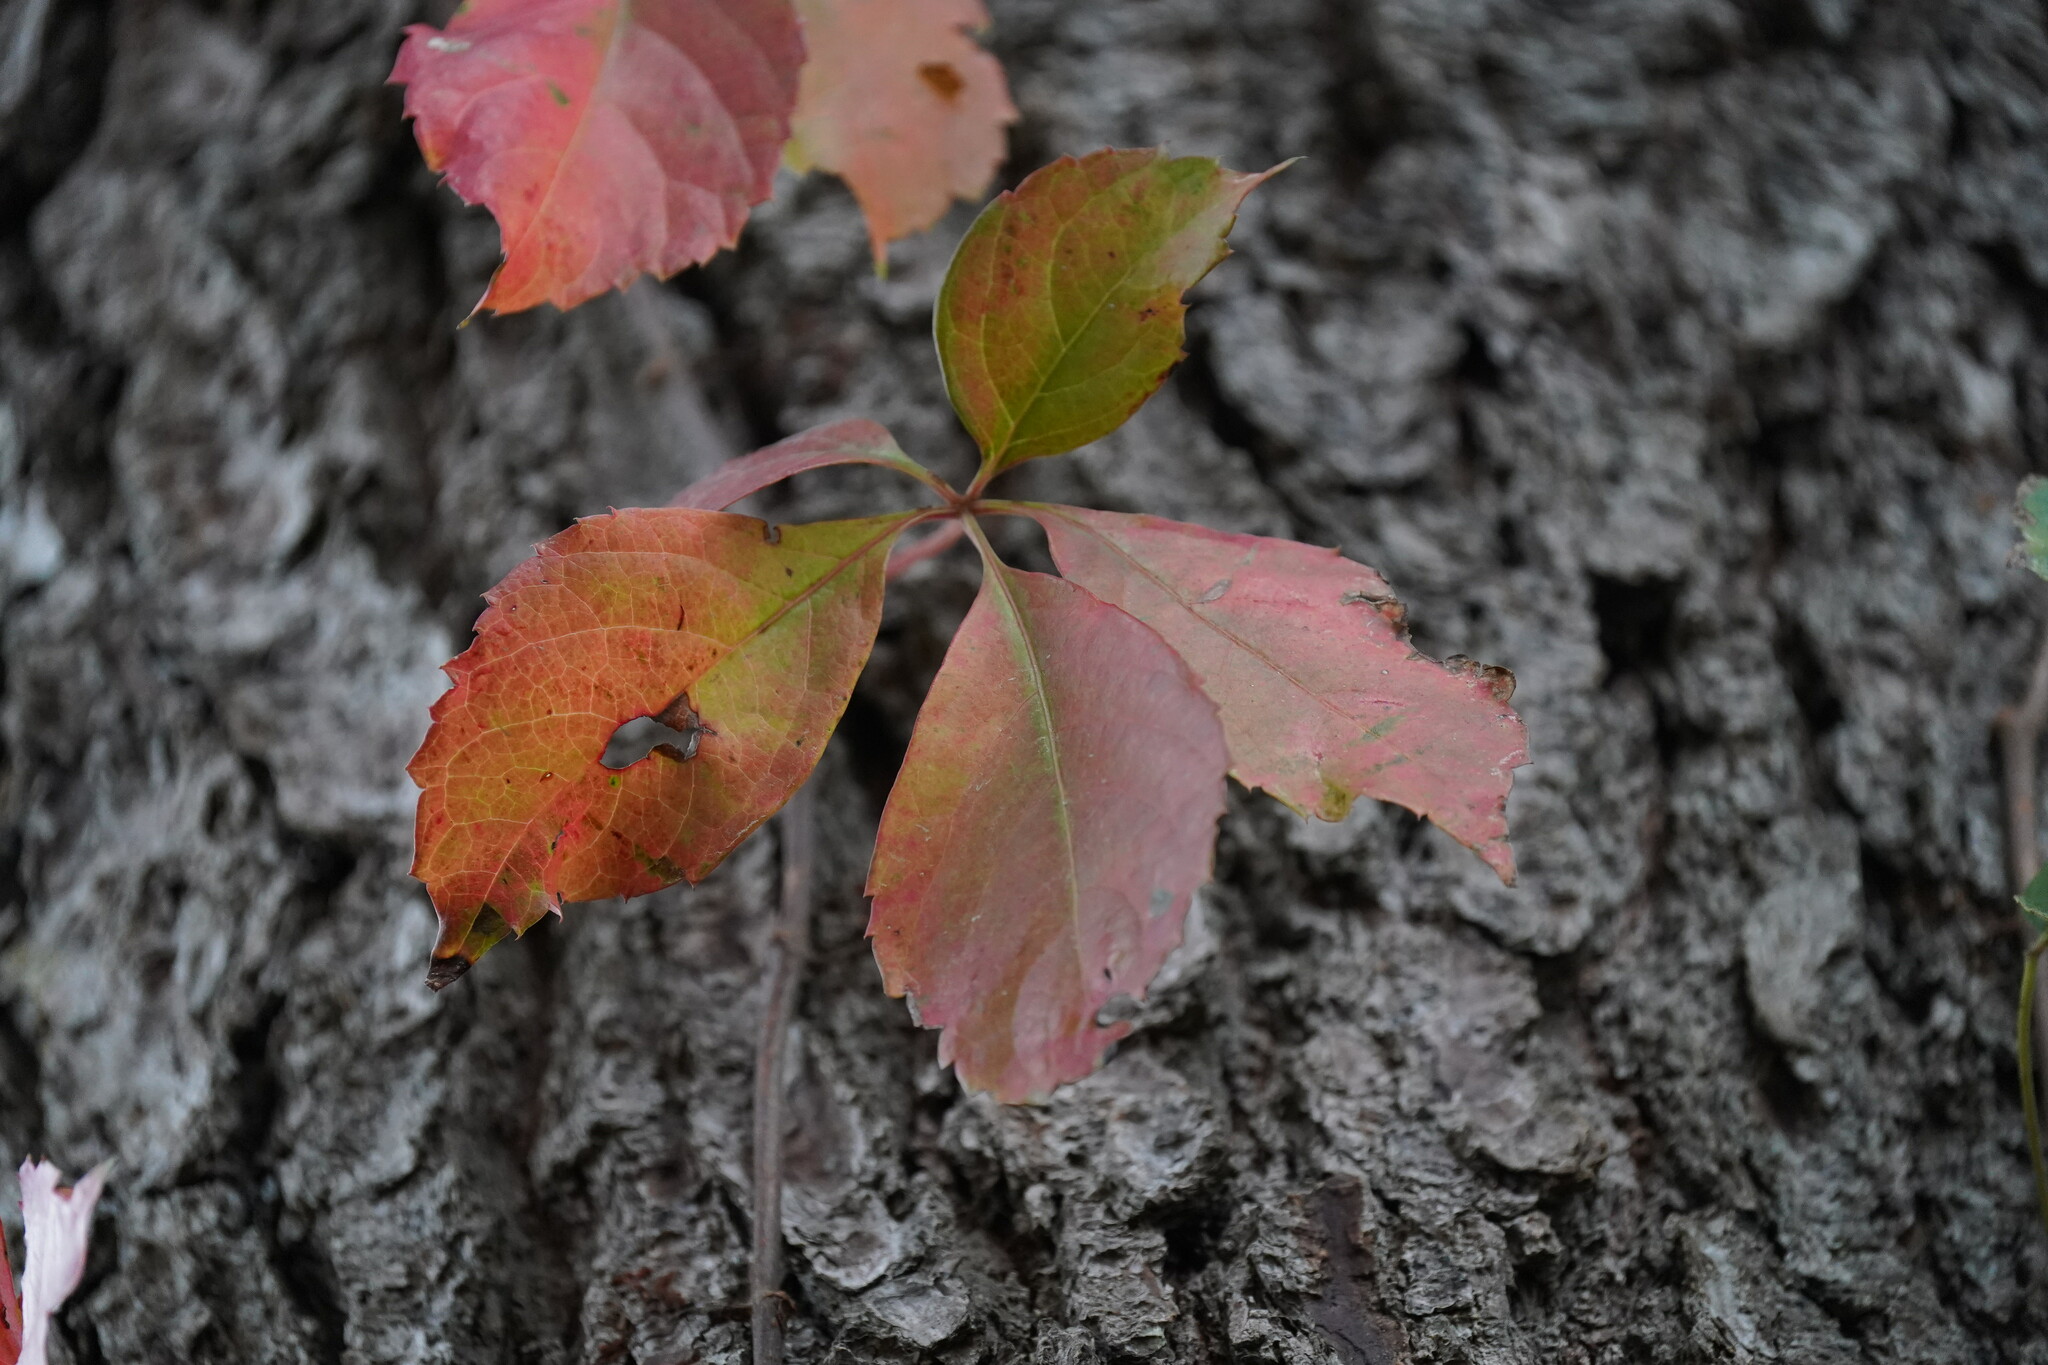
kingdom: Plantae
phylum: Tracheophyta
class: Magnoliopsida
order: Vitales
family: Vitaceae
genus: Parthenocissus
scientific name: Parthenocissus quinquefolia
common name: Virginia-creeper
